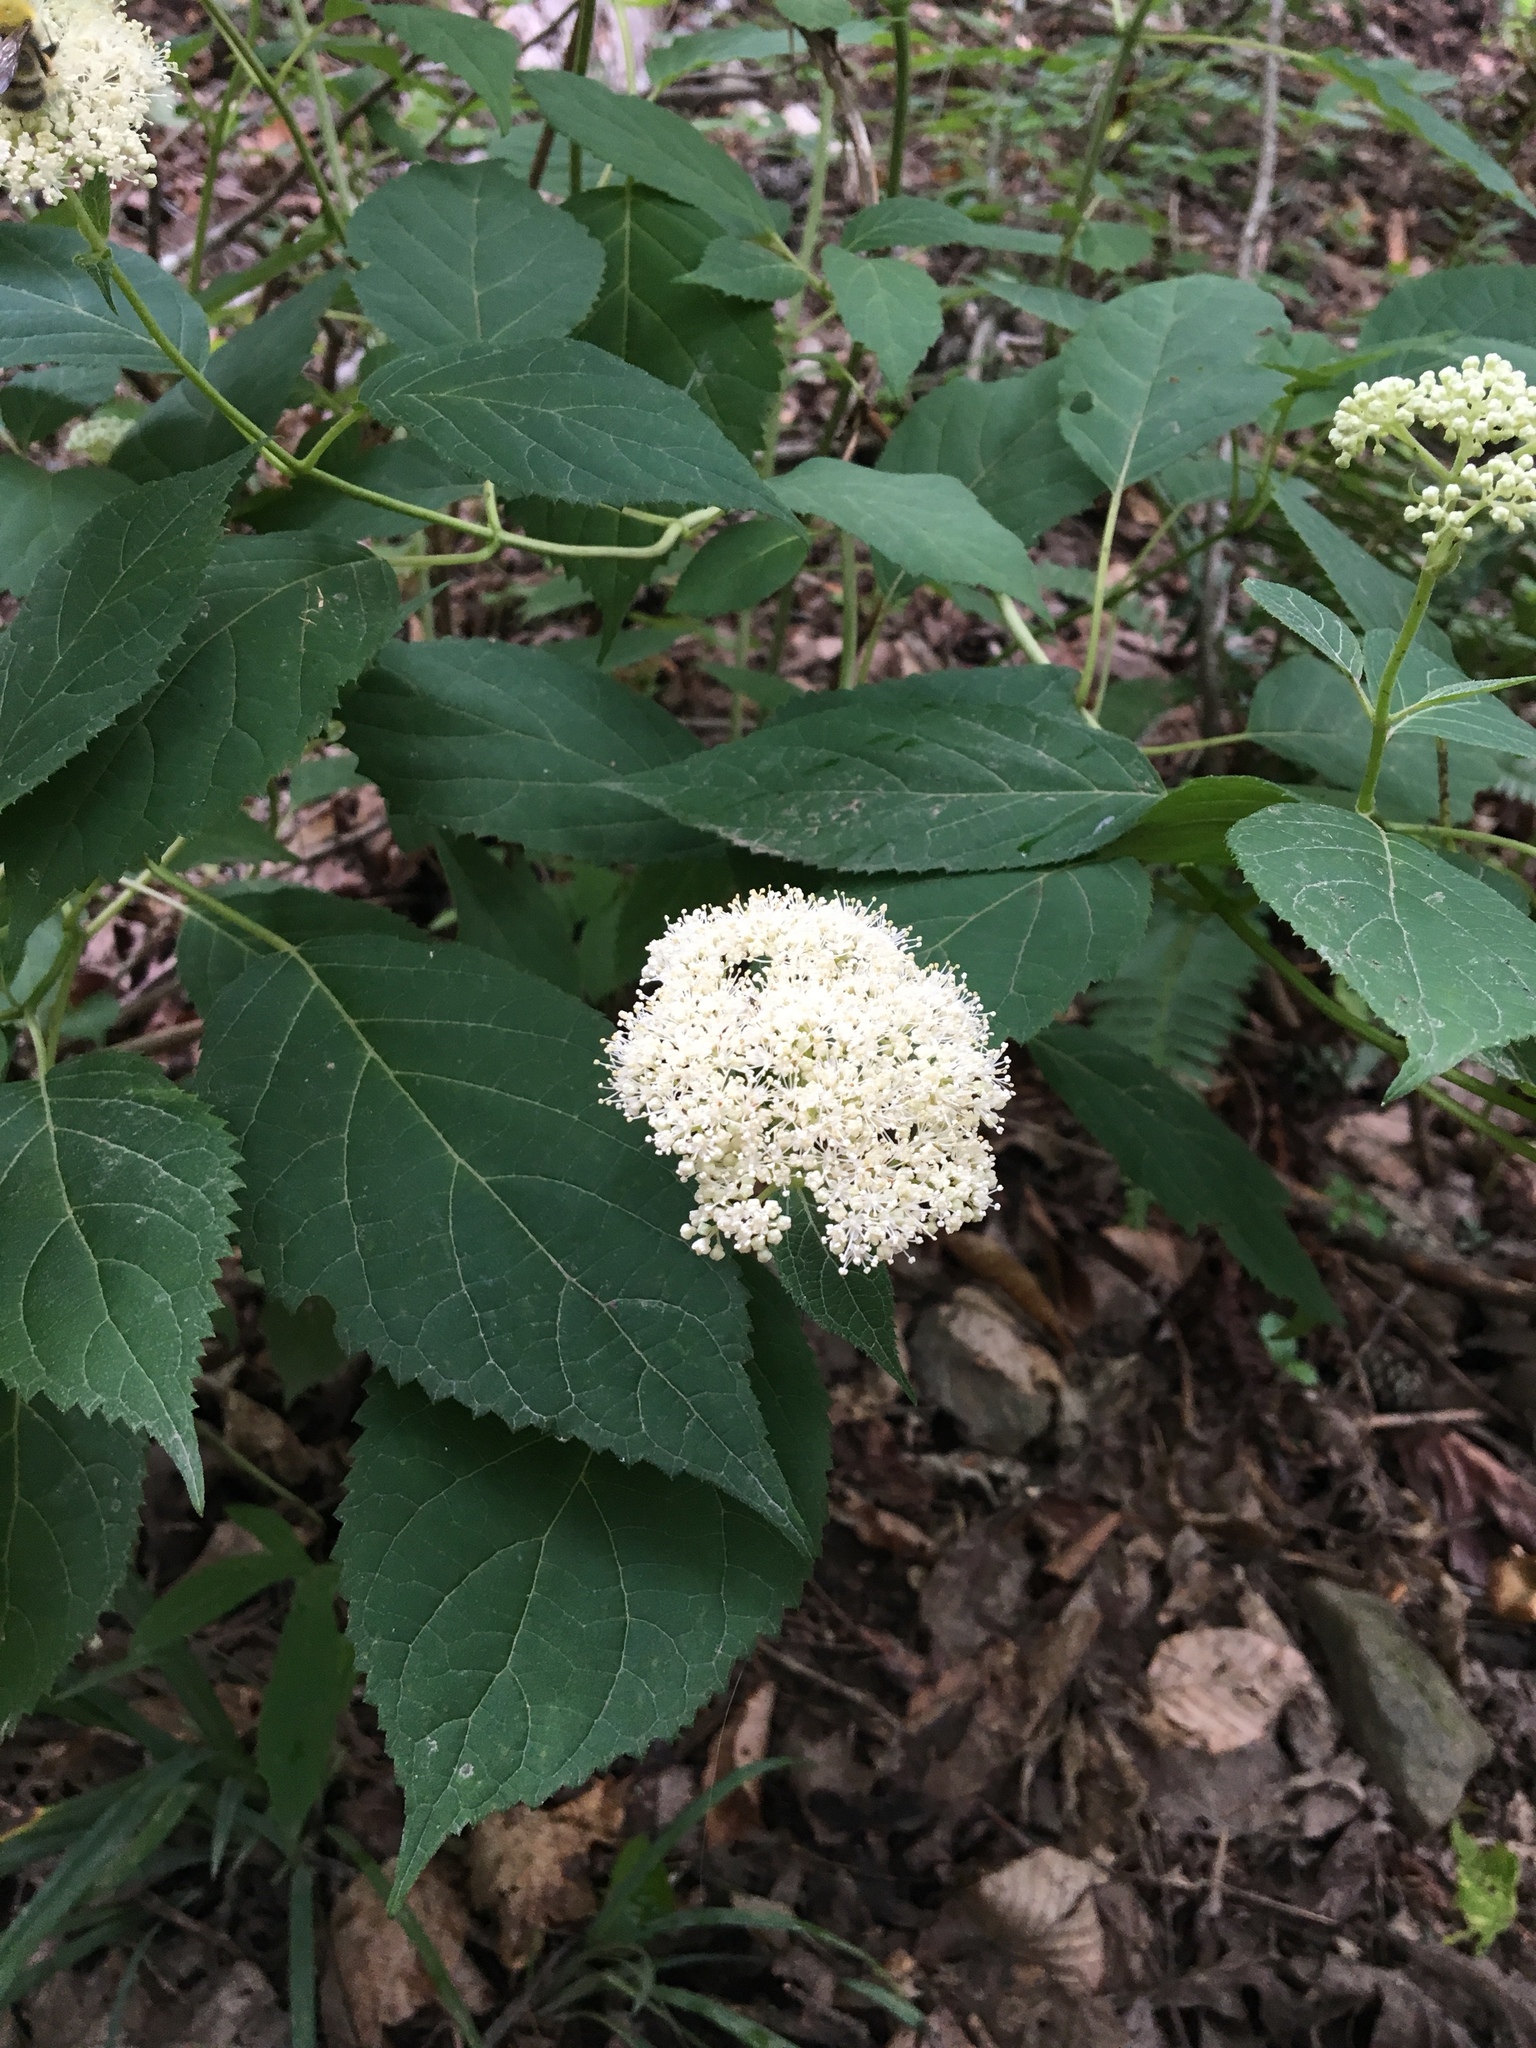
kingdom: Plantae
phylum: Tracheophyta
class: Magnoliopsida
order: Cornales
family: Hydrangeaceae
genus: Hydrangea
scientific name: Hydrangea arborescens
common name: Sevenbark
